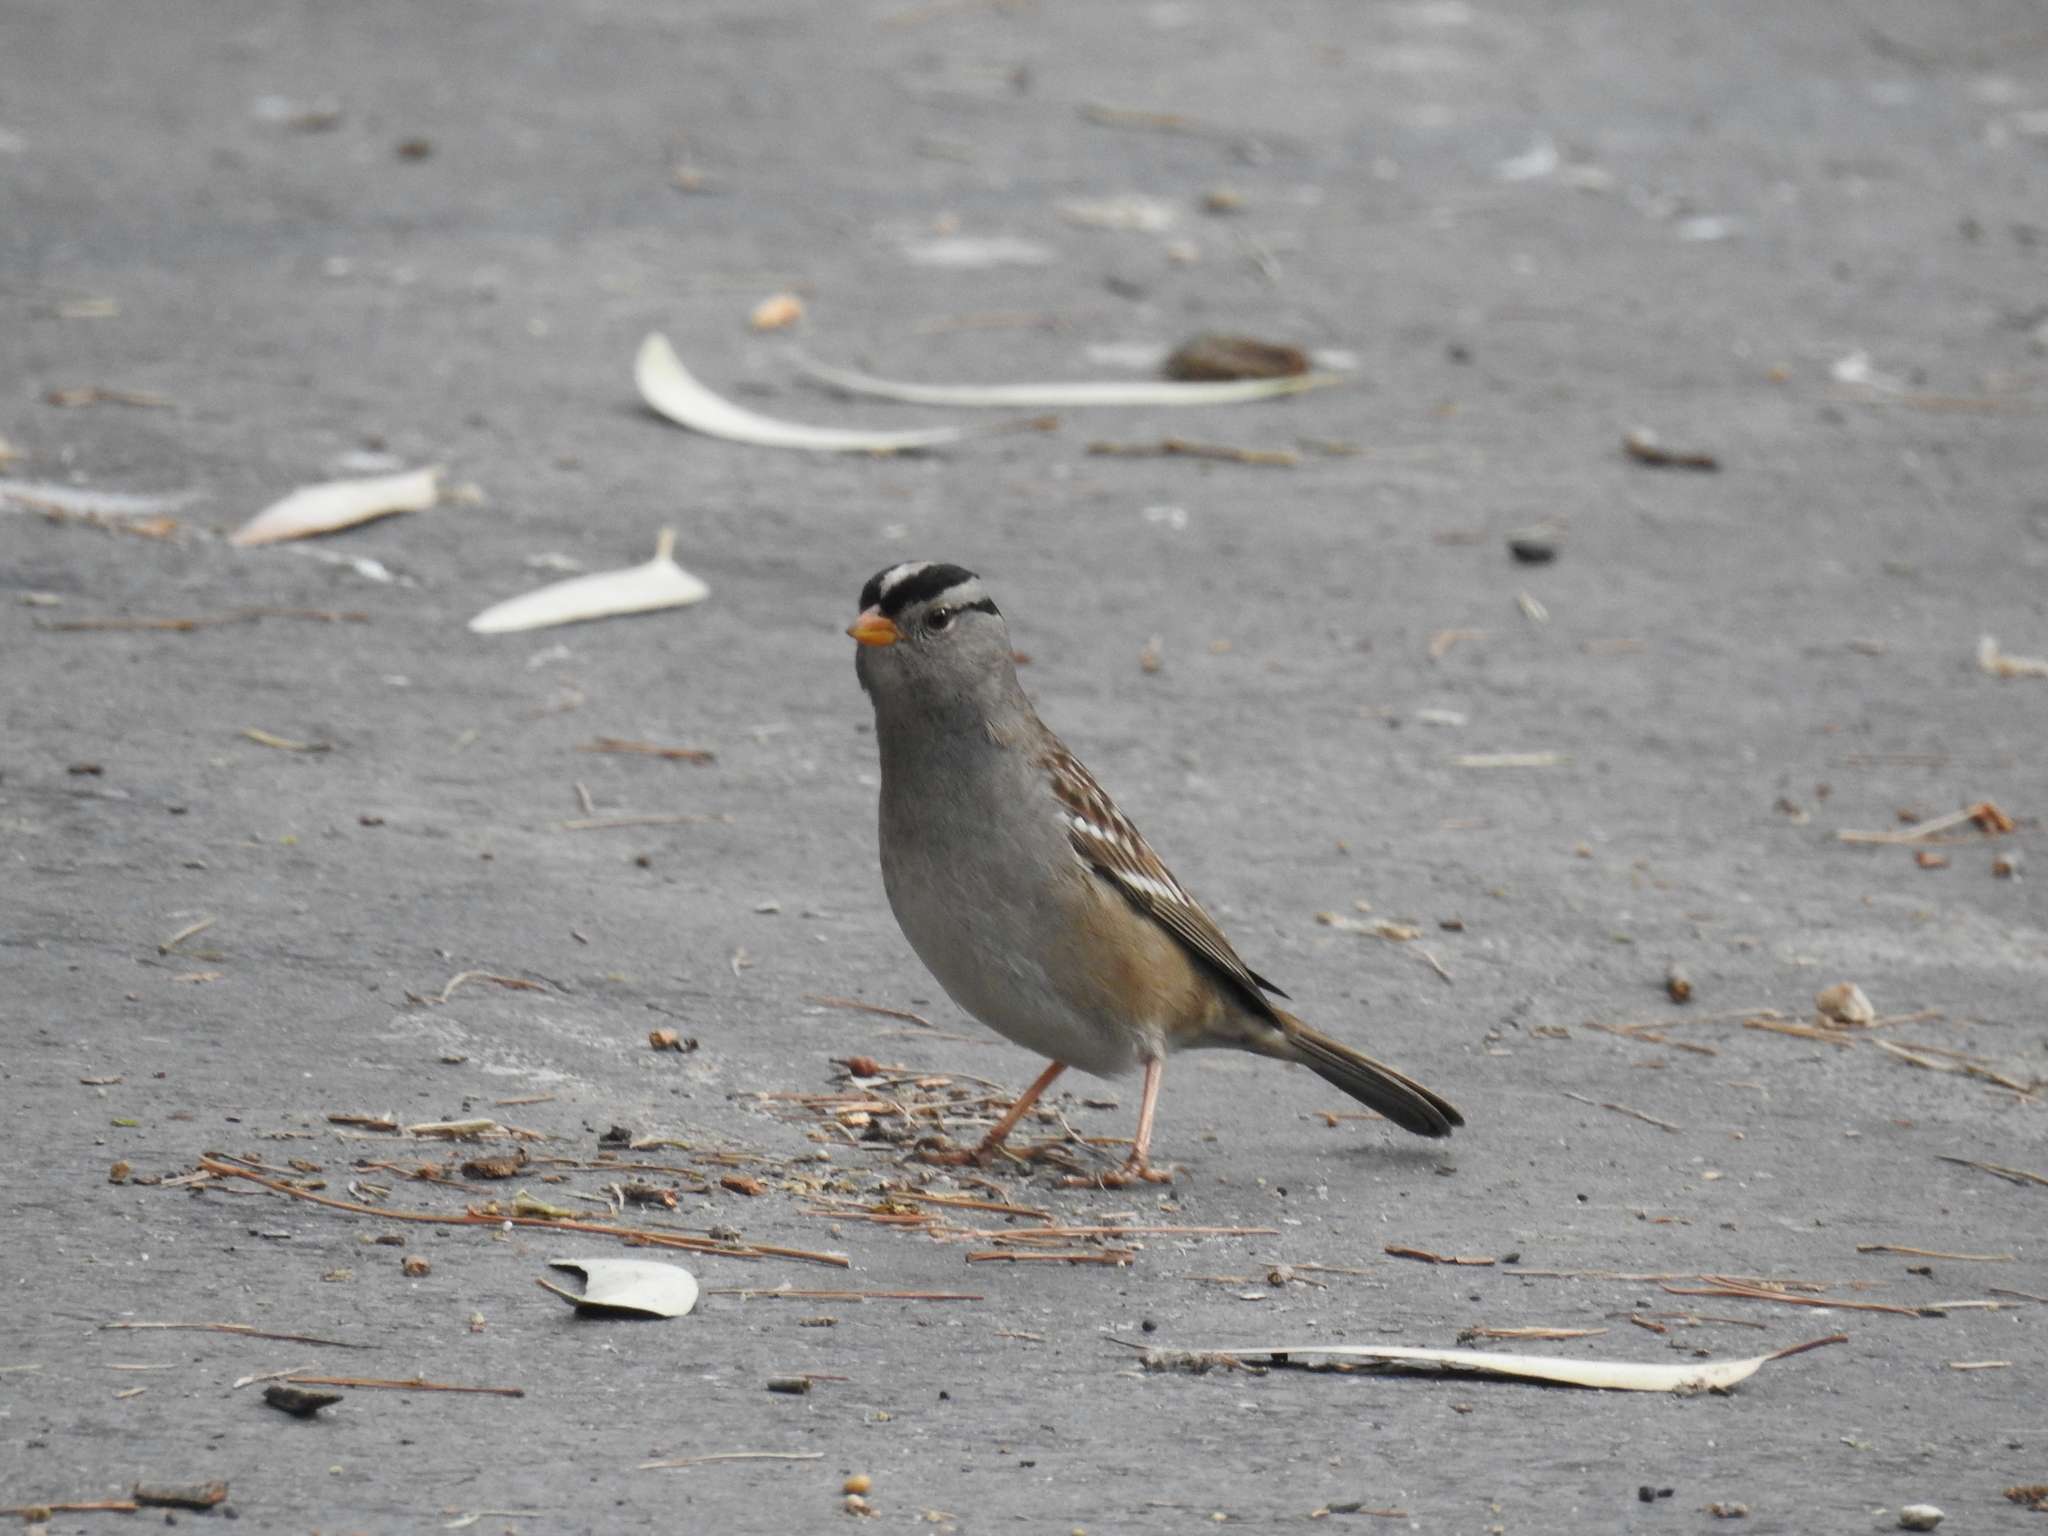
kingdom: Animalia
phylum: Chordata
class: Aves
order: Passeriformes
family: Passerellidae
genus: Zonotrichia
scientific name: Zonotrichia leucophrys
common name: White-crowned sparrow
